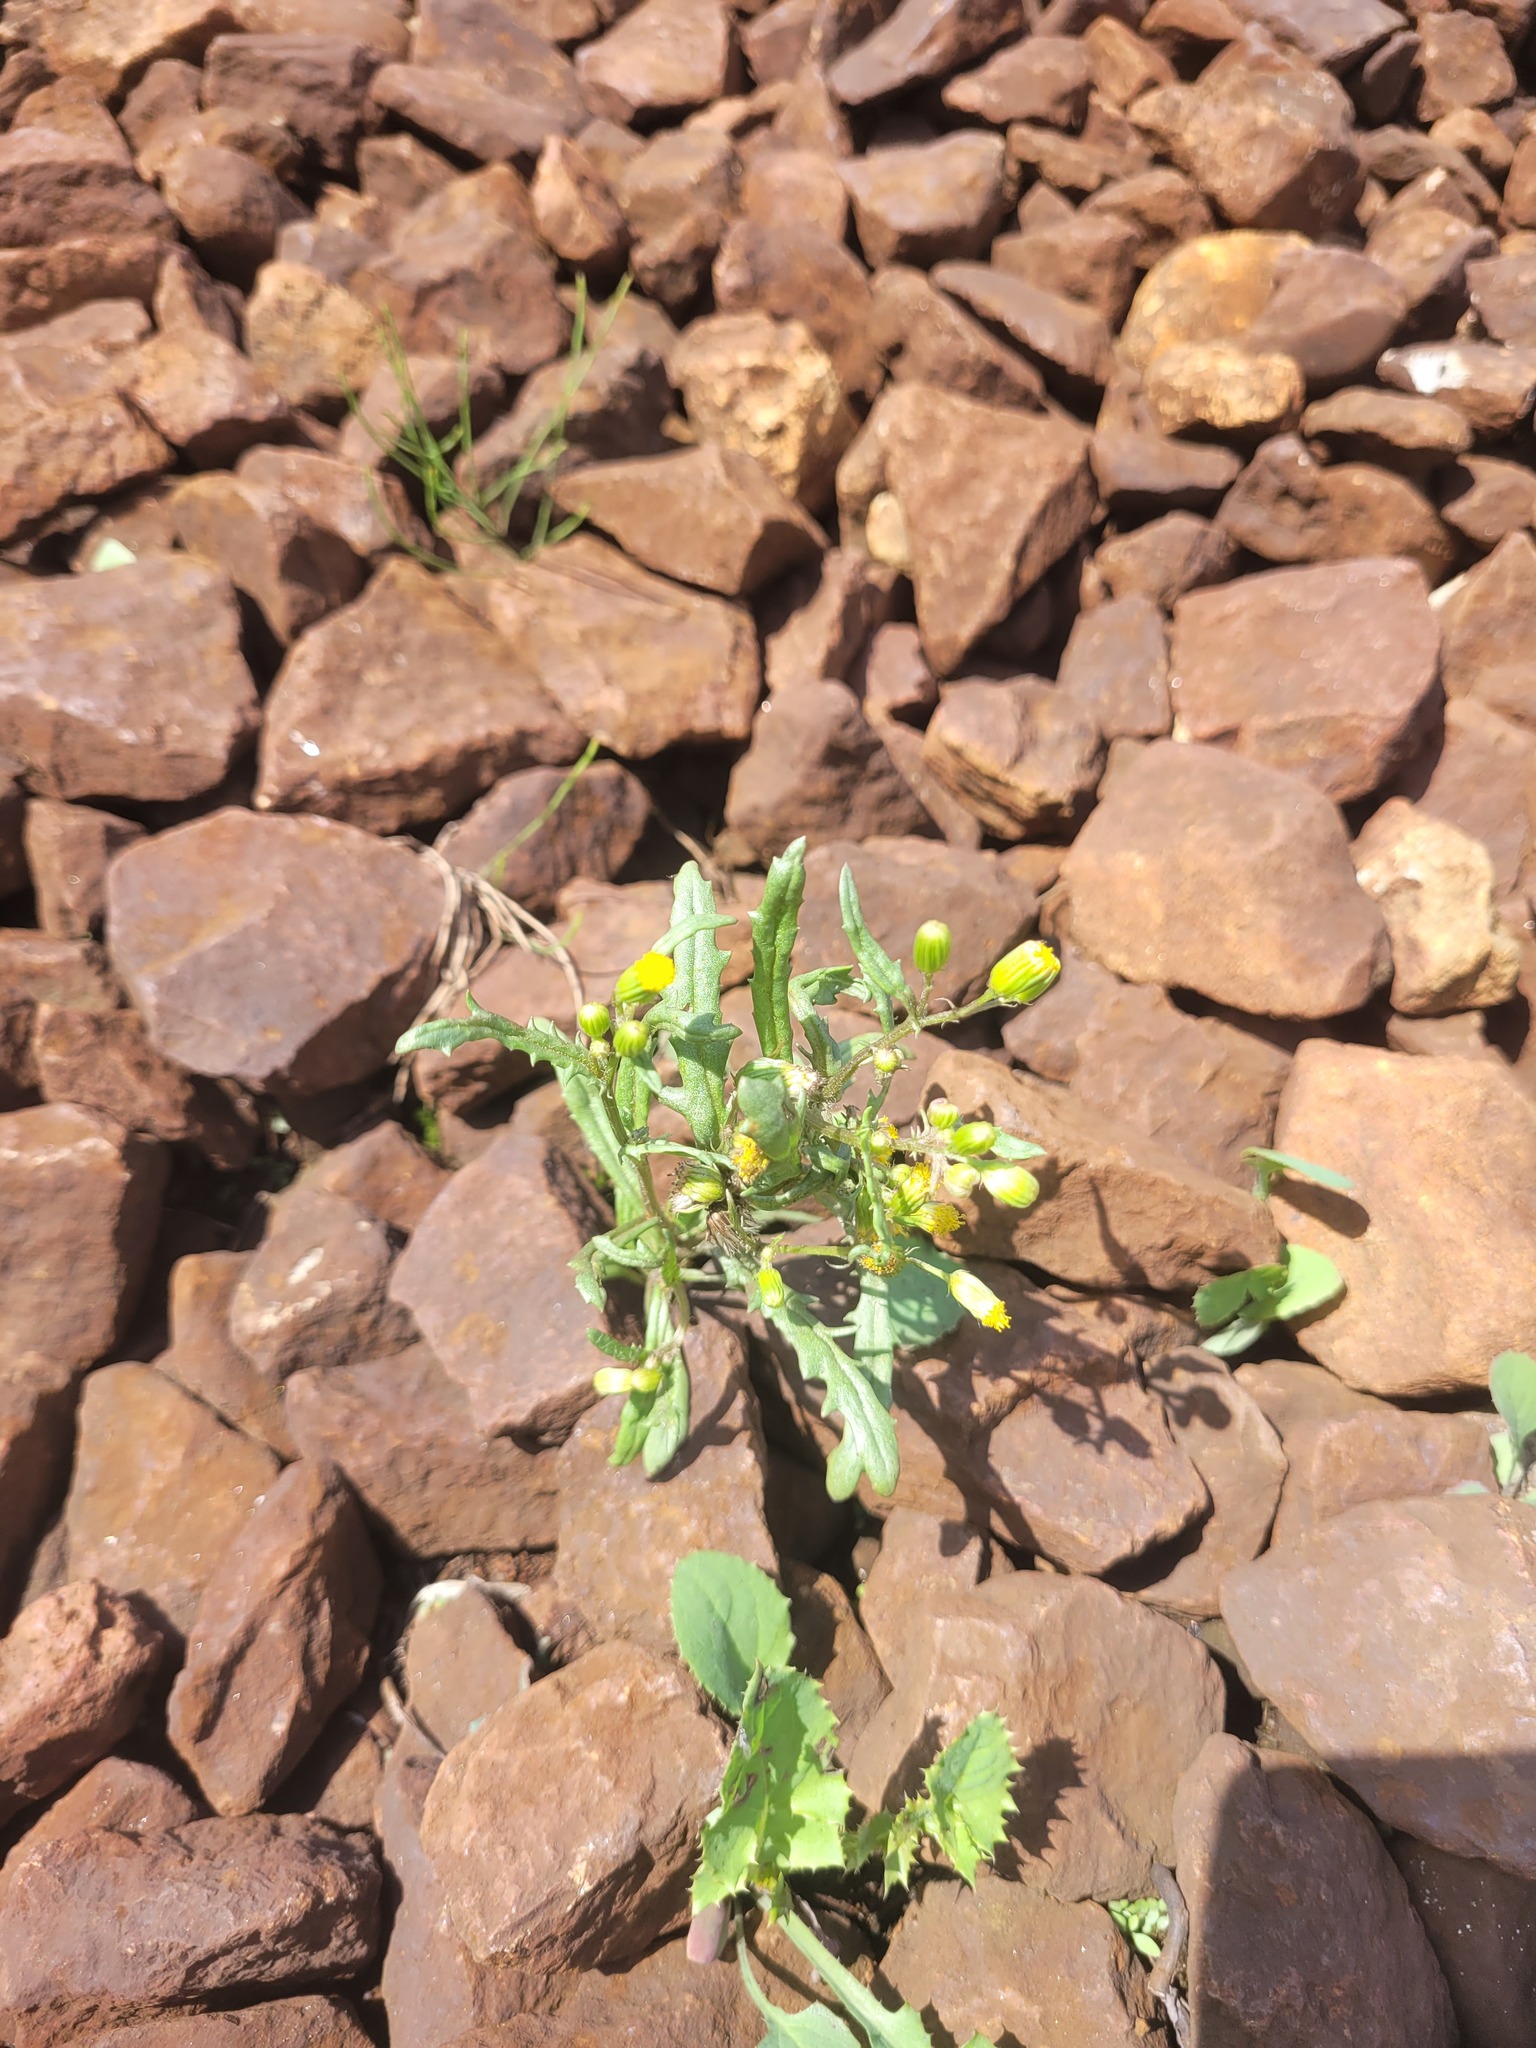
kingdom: Plantae
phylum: Tracheophyta
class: Magnoliopsida
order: Asterales
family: Asteraceae
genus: Senecio
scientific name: Senecio dubitabilis
